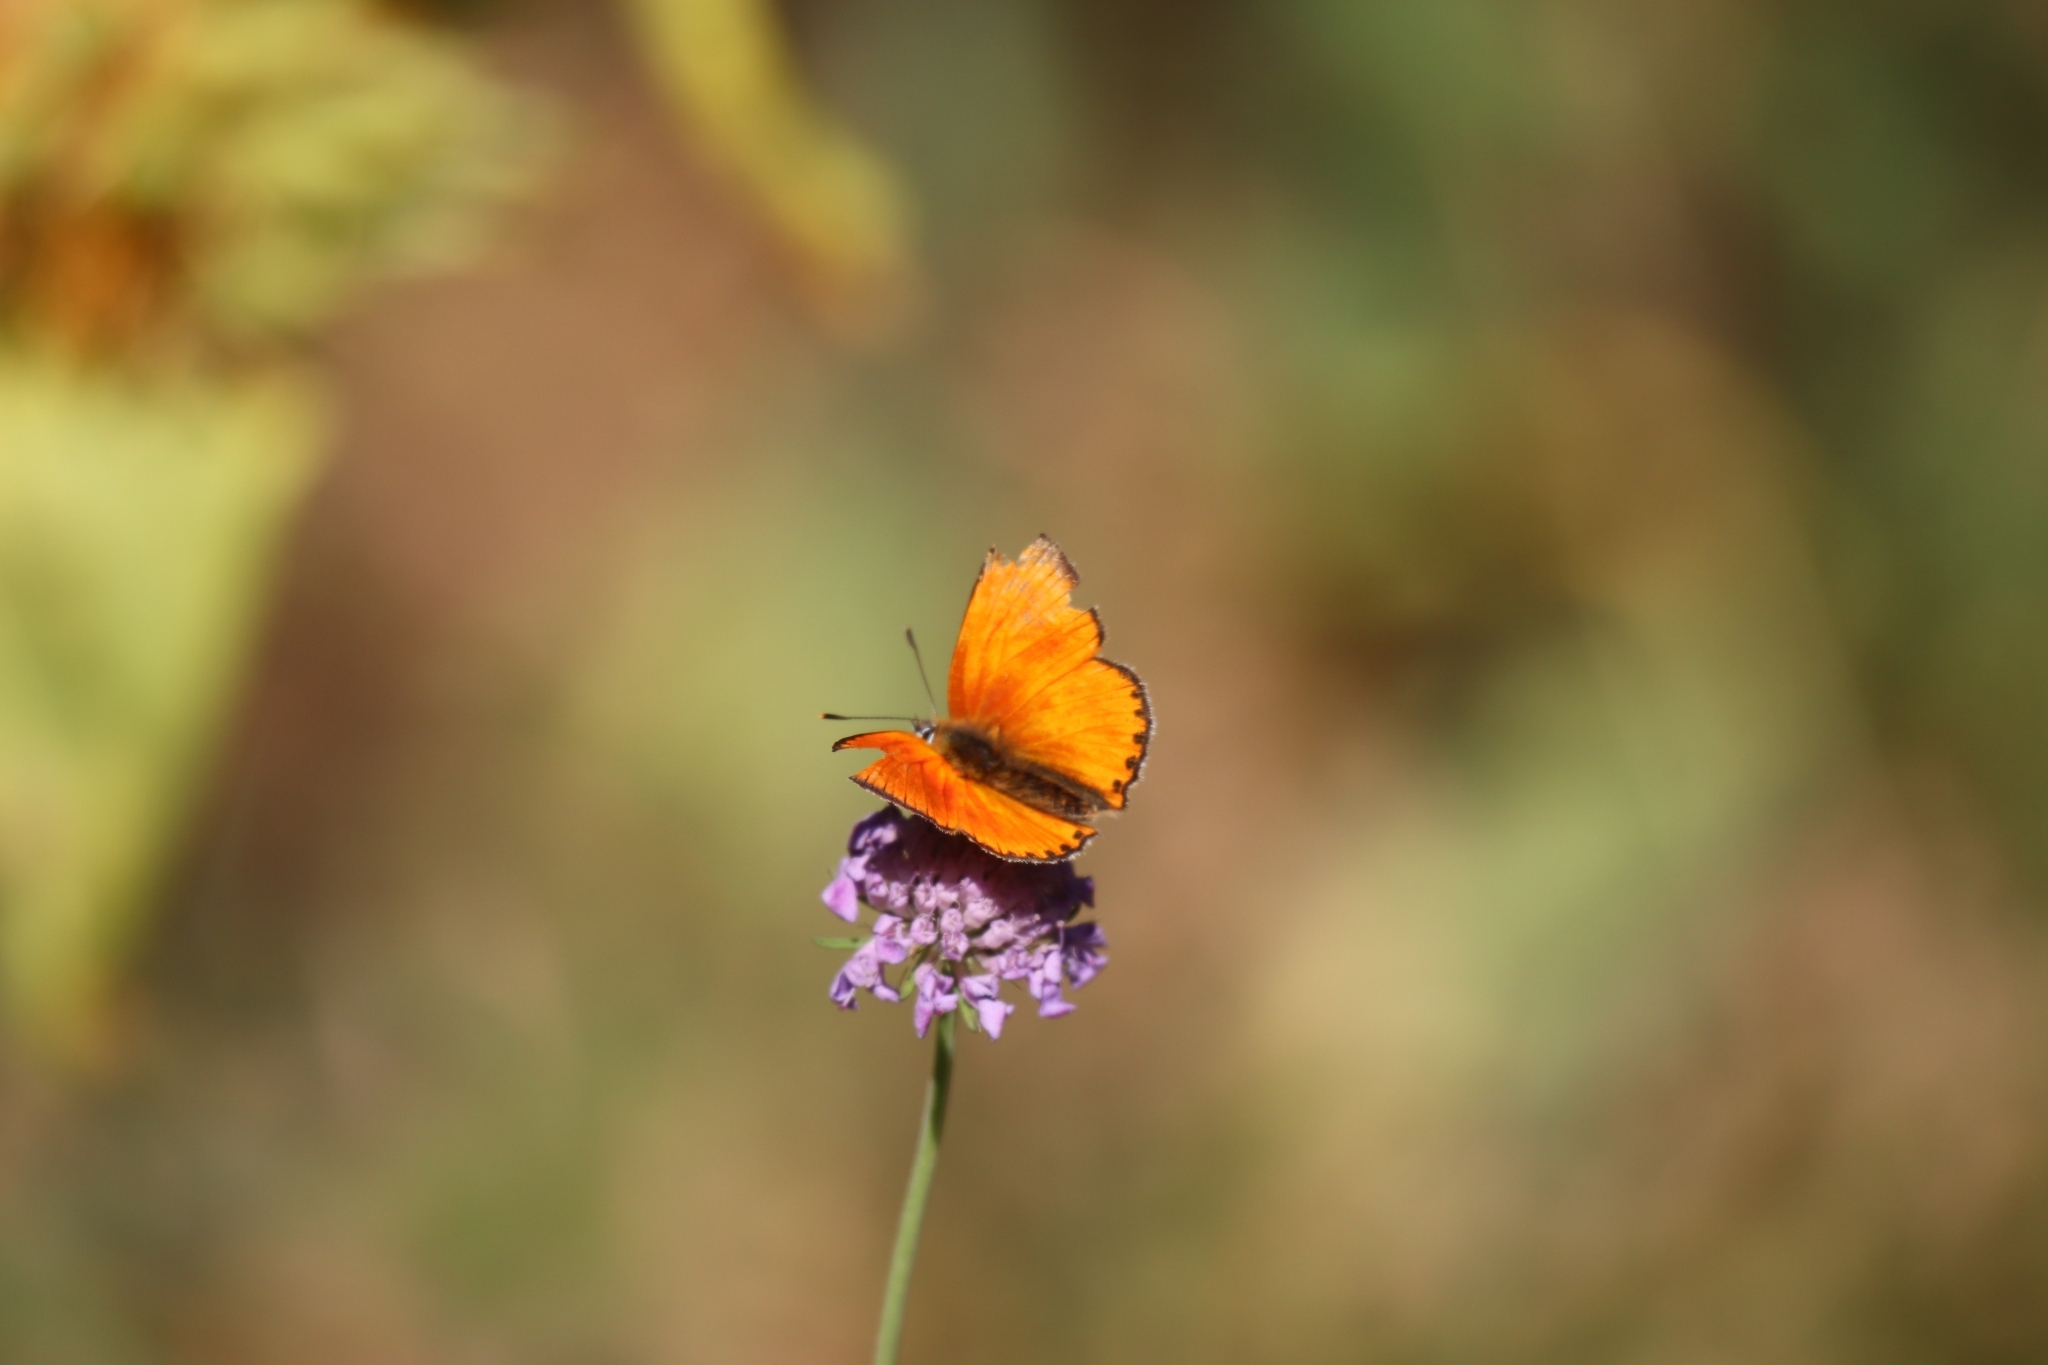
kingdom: Animalia
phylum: Arthropoda
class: Insecta
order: Lepidoptera
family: Lycaenidae
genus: Lycaena
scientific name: Lycaena virgaureae
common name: Scarce copper
